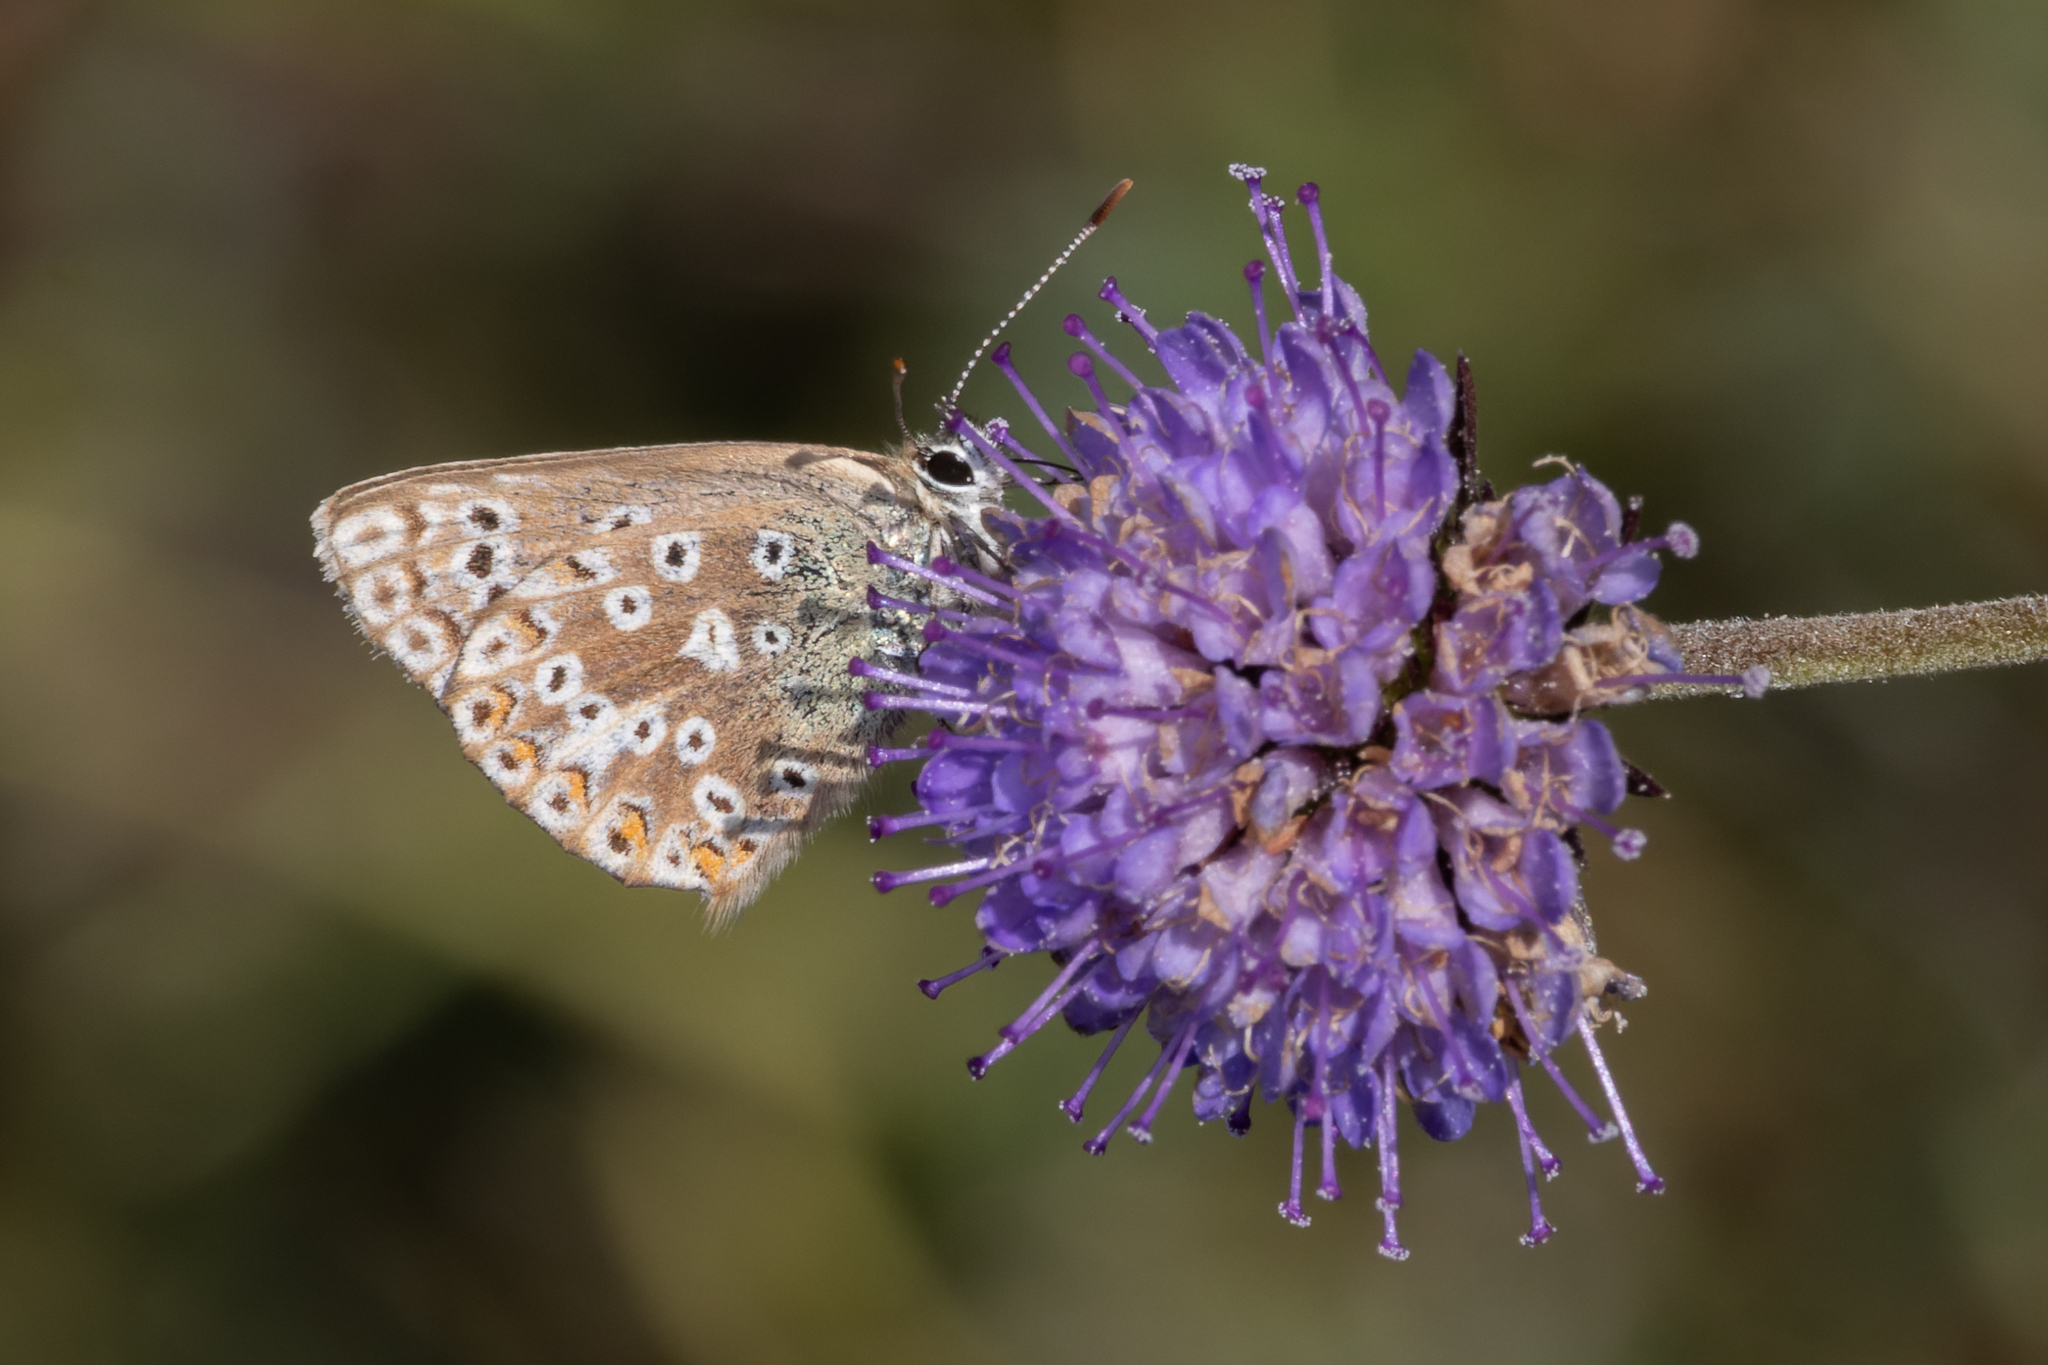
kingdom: Animalia
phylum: Arthropoda
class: Insecta
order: Lepidoptera
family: Lycaenidae
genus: Lysandra
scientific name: Lysandra coridon
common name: Chalkhill blue
